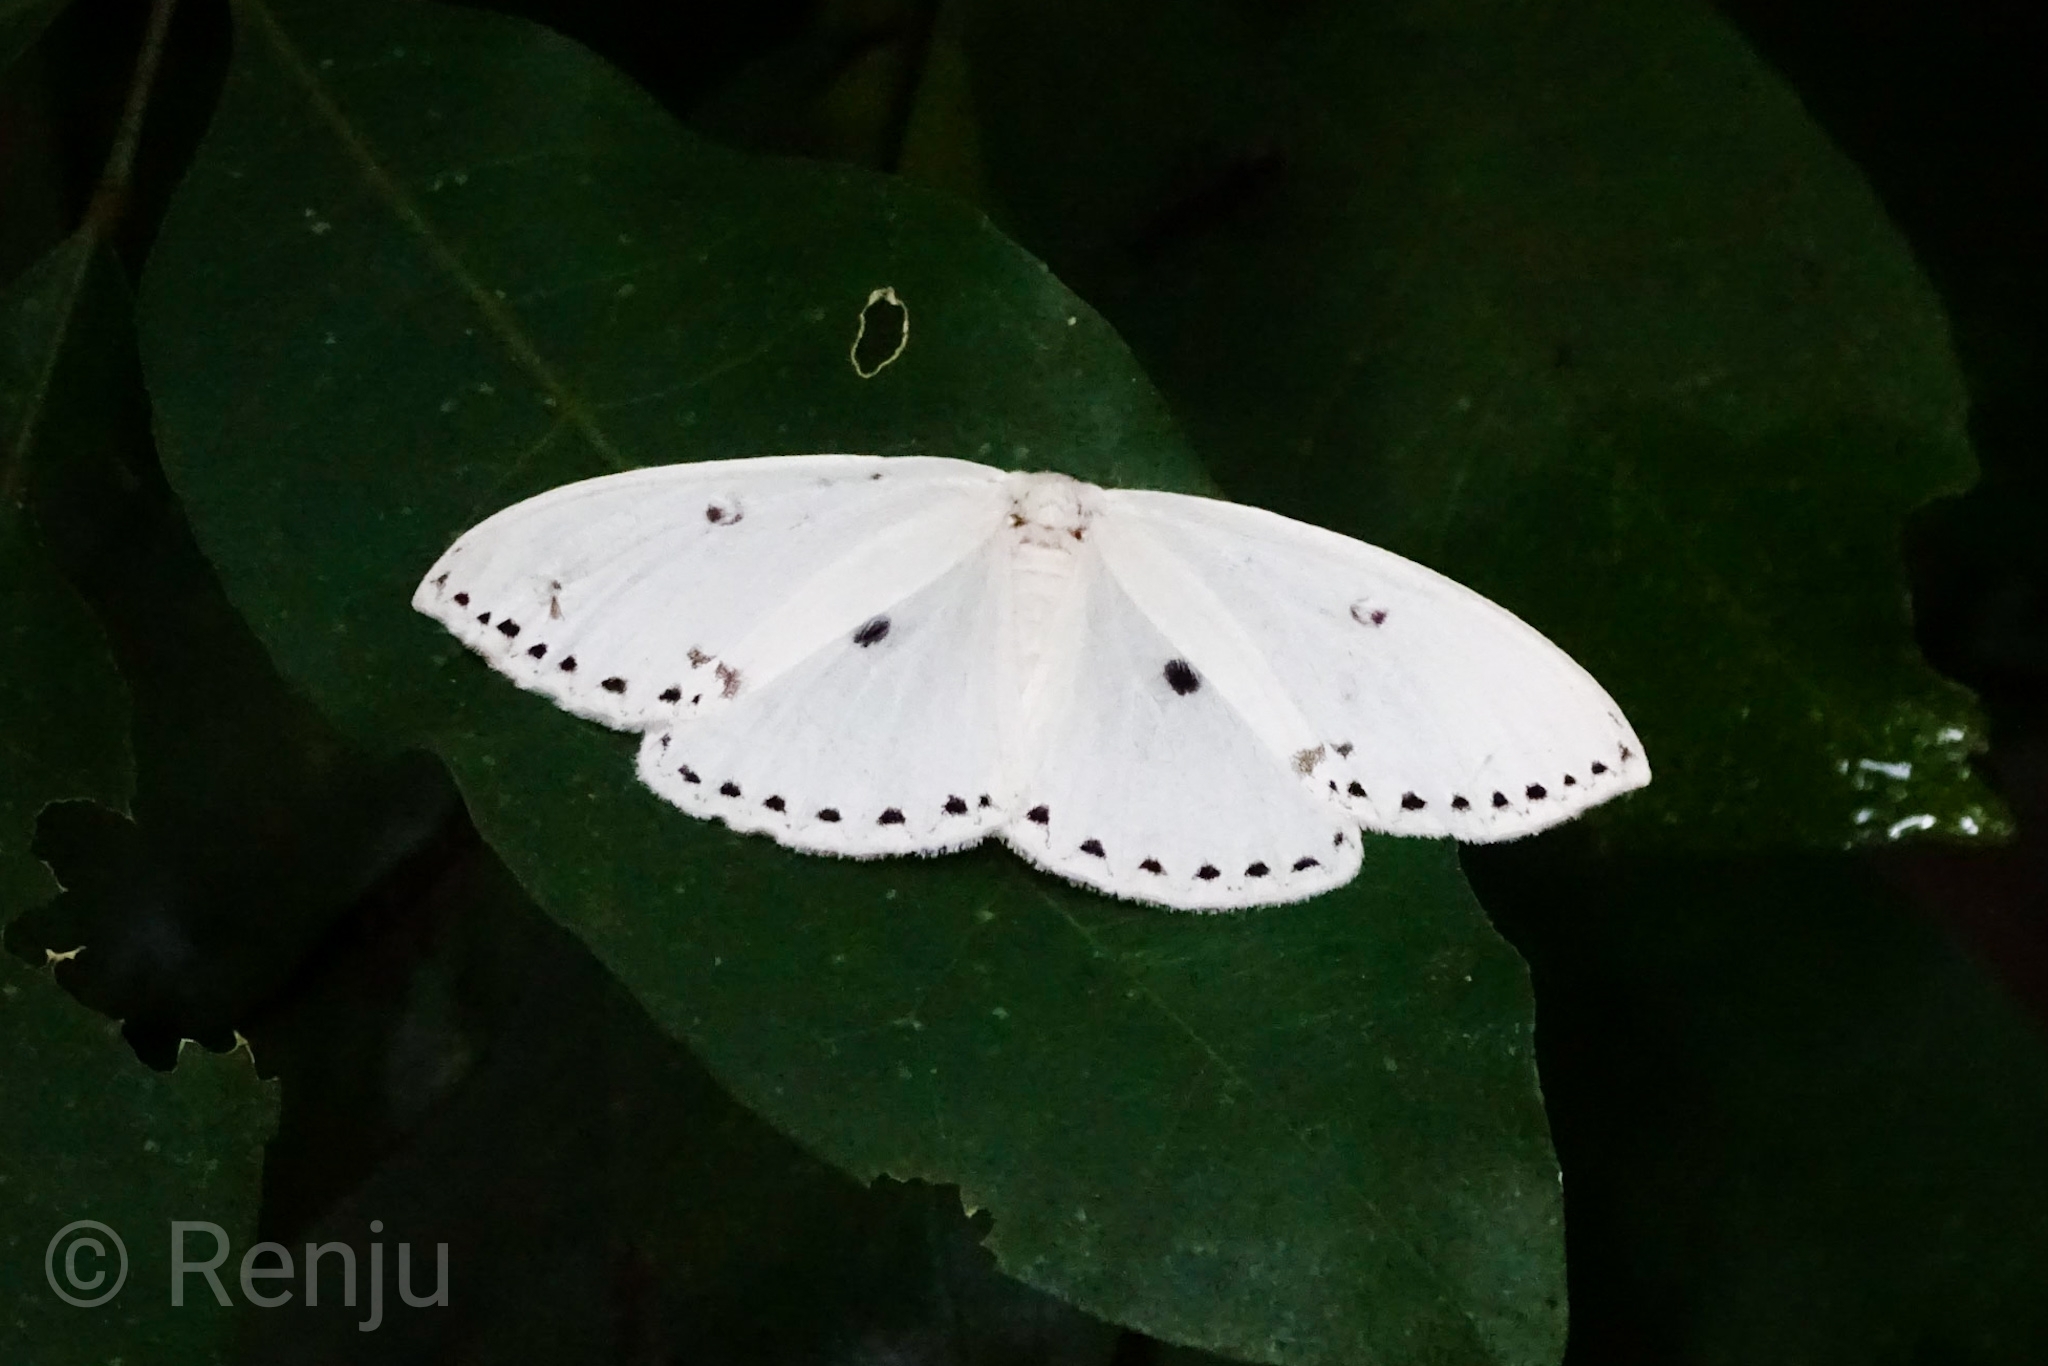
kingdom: Animalia
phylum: Arthropoda
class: Insecta
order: Lepidoptera
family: Drepanidae
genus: Cyclidia
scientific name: Cyclidia dictyaria
